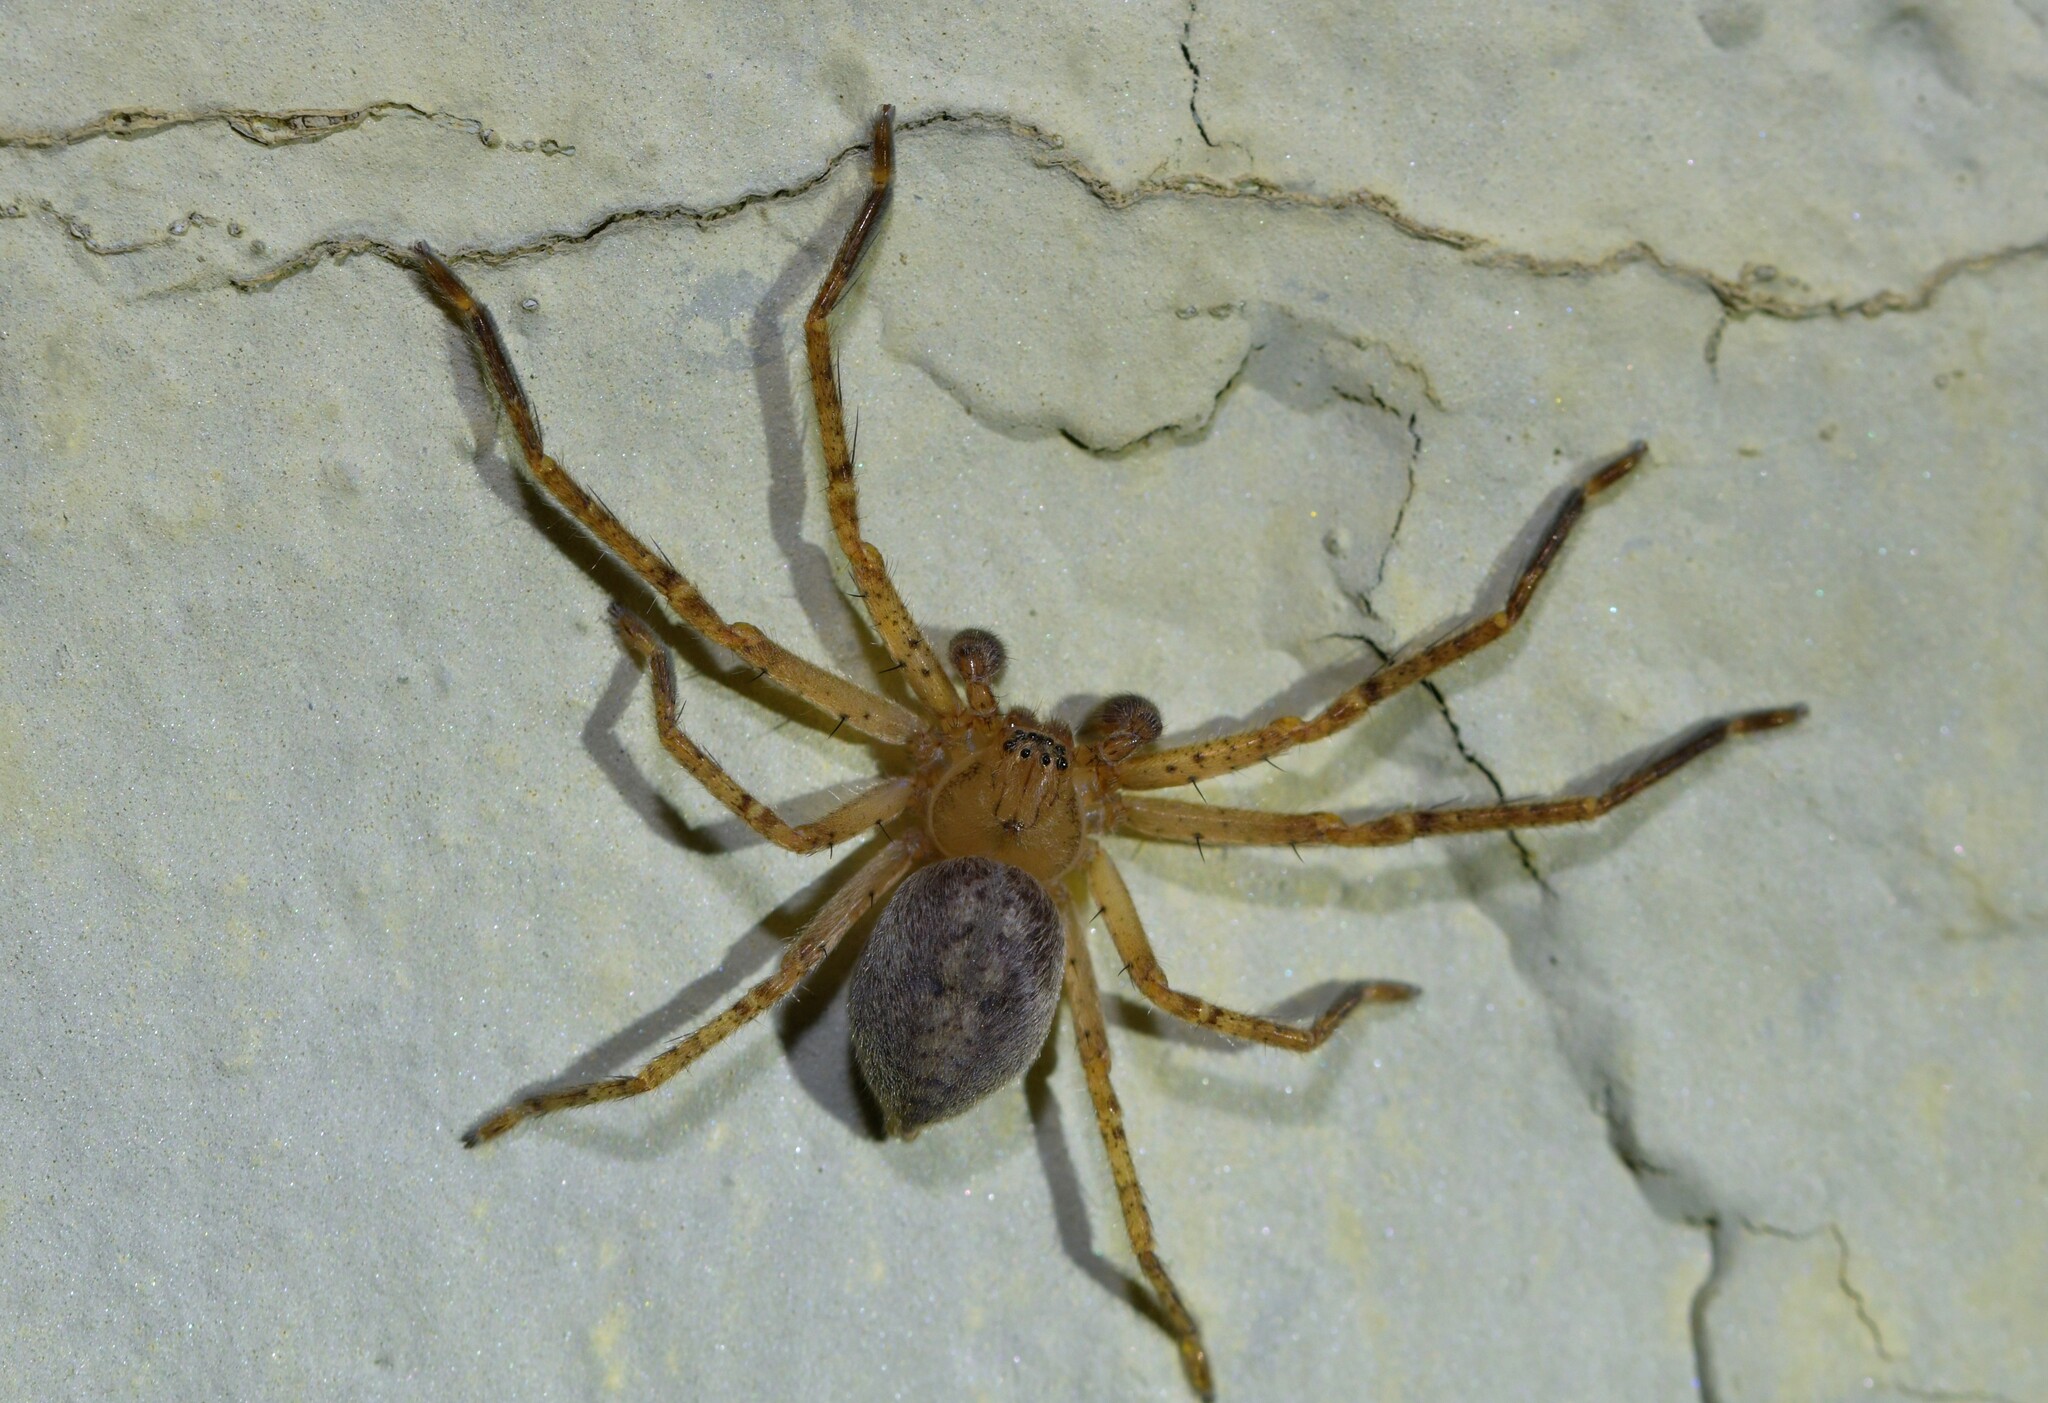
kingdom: Animalia
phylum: Arthropoda
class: Arachnida
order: Araneae
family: Sparassidae
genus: Olios
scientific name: Olios argelasius
